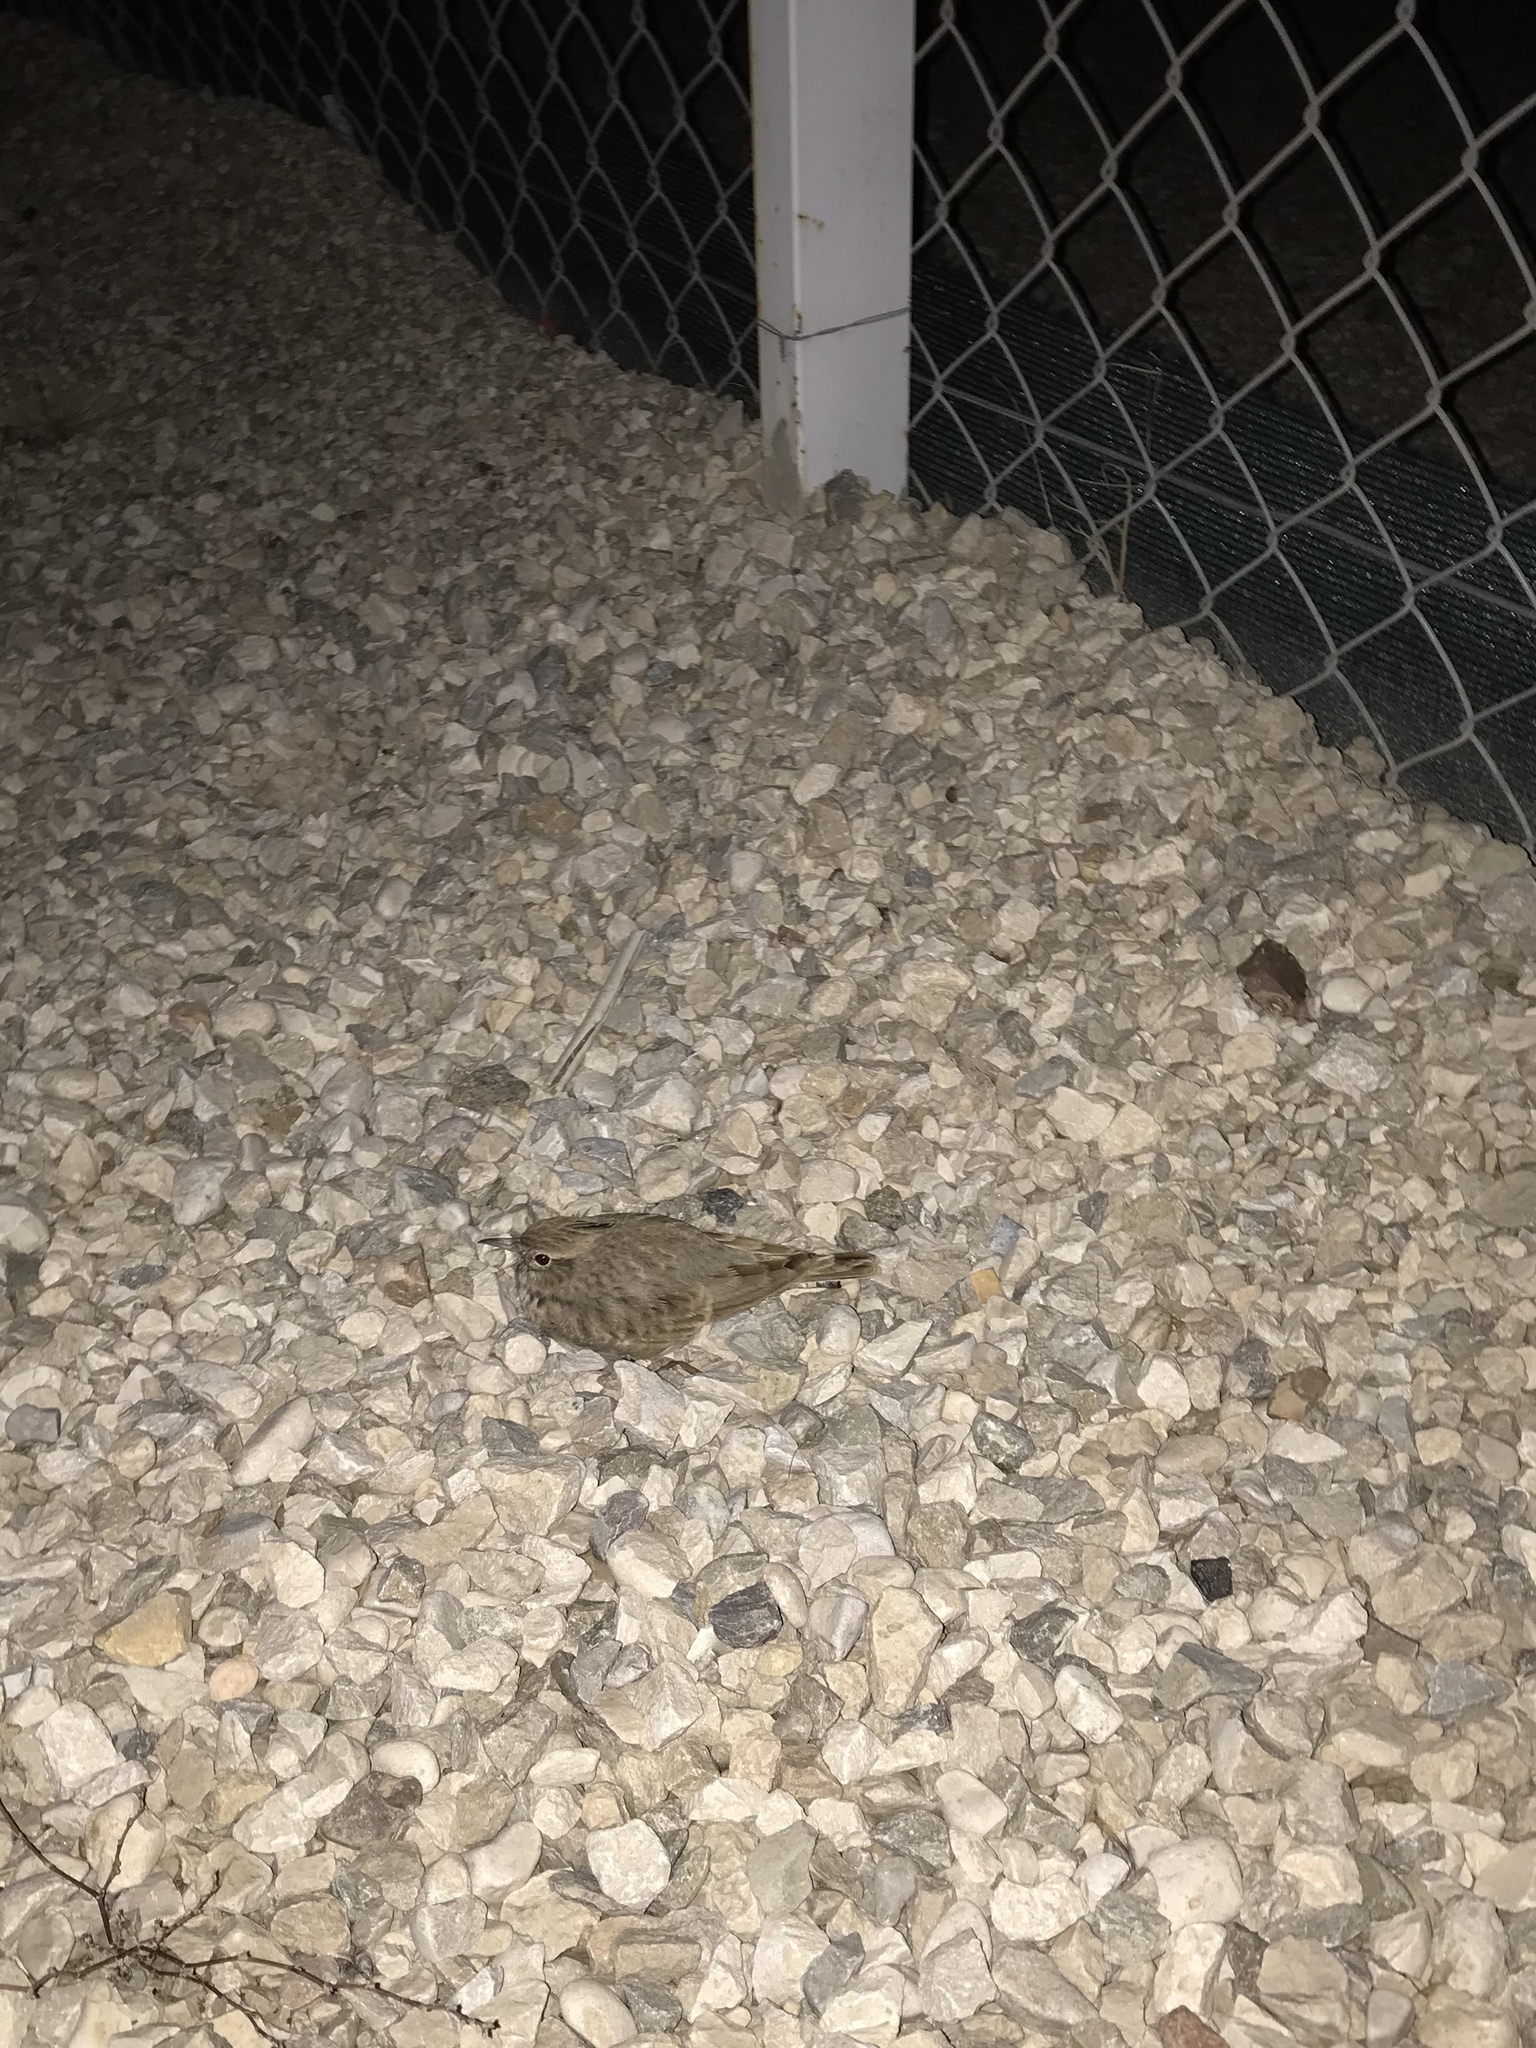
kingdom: Animalia
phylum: Chordata
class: Aves
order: Passeriformes
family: Alaudidae
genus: Galerida
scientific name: Galerida cristata
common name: Crested lark
